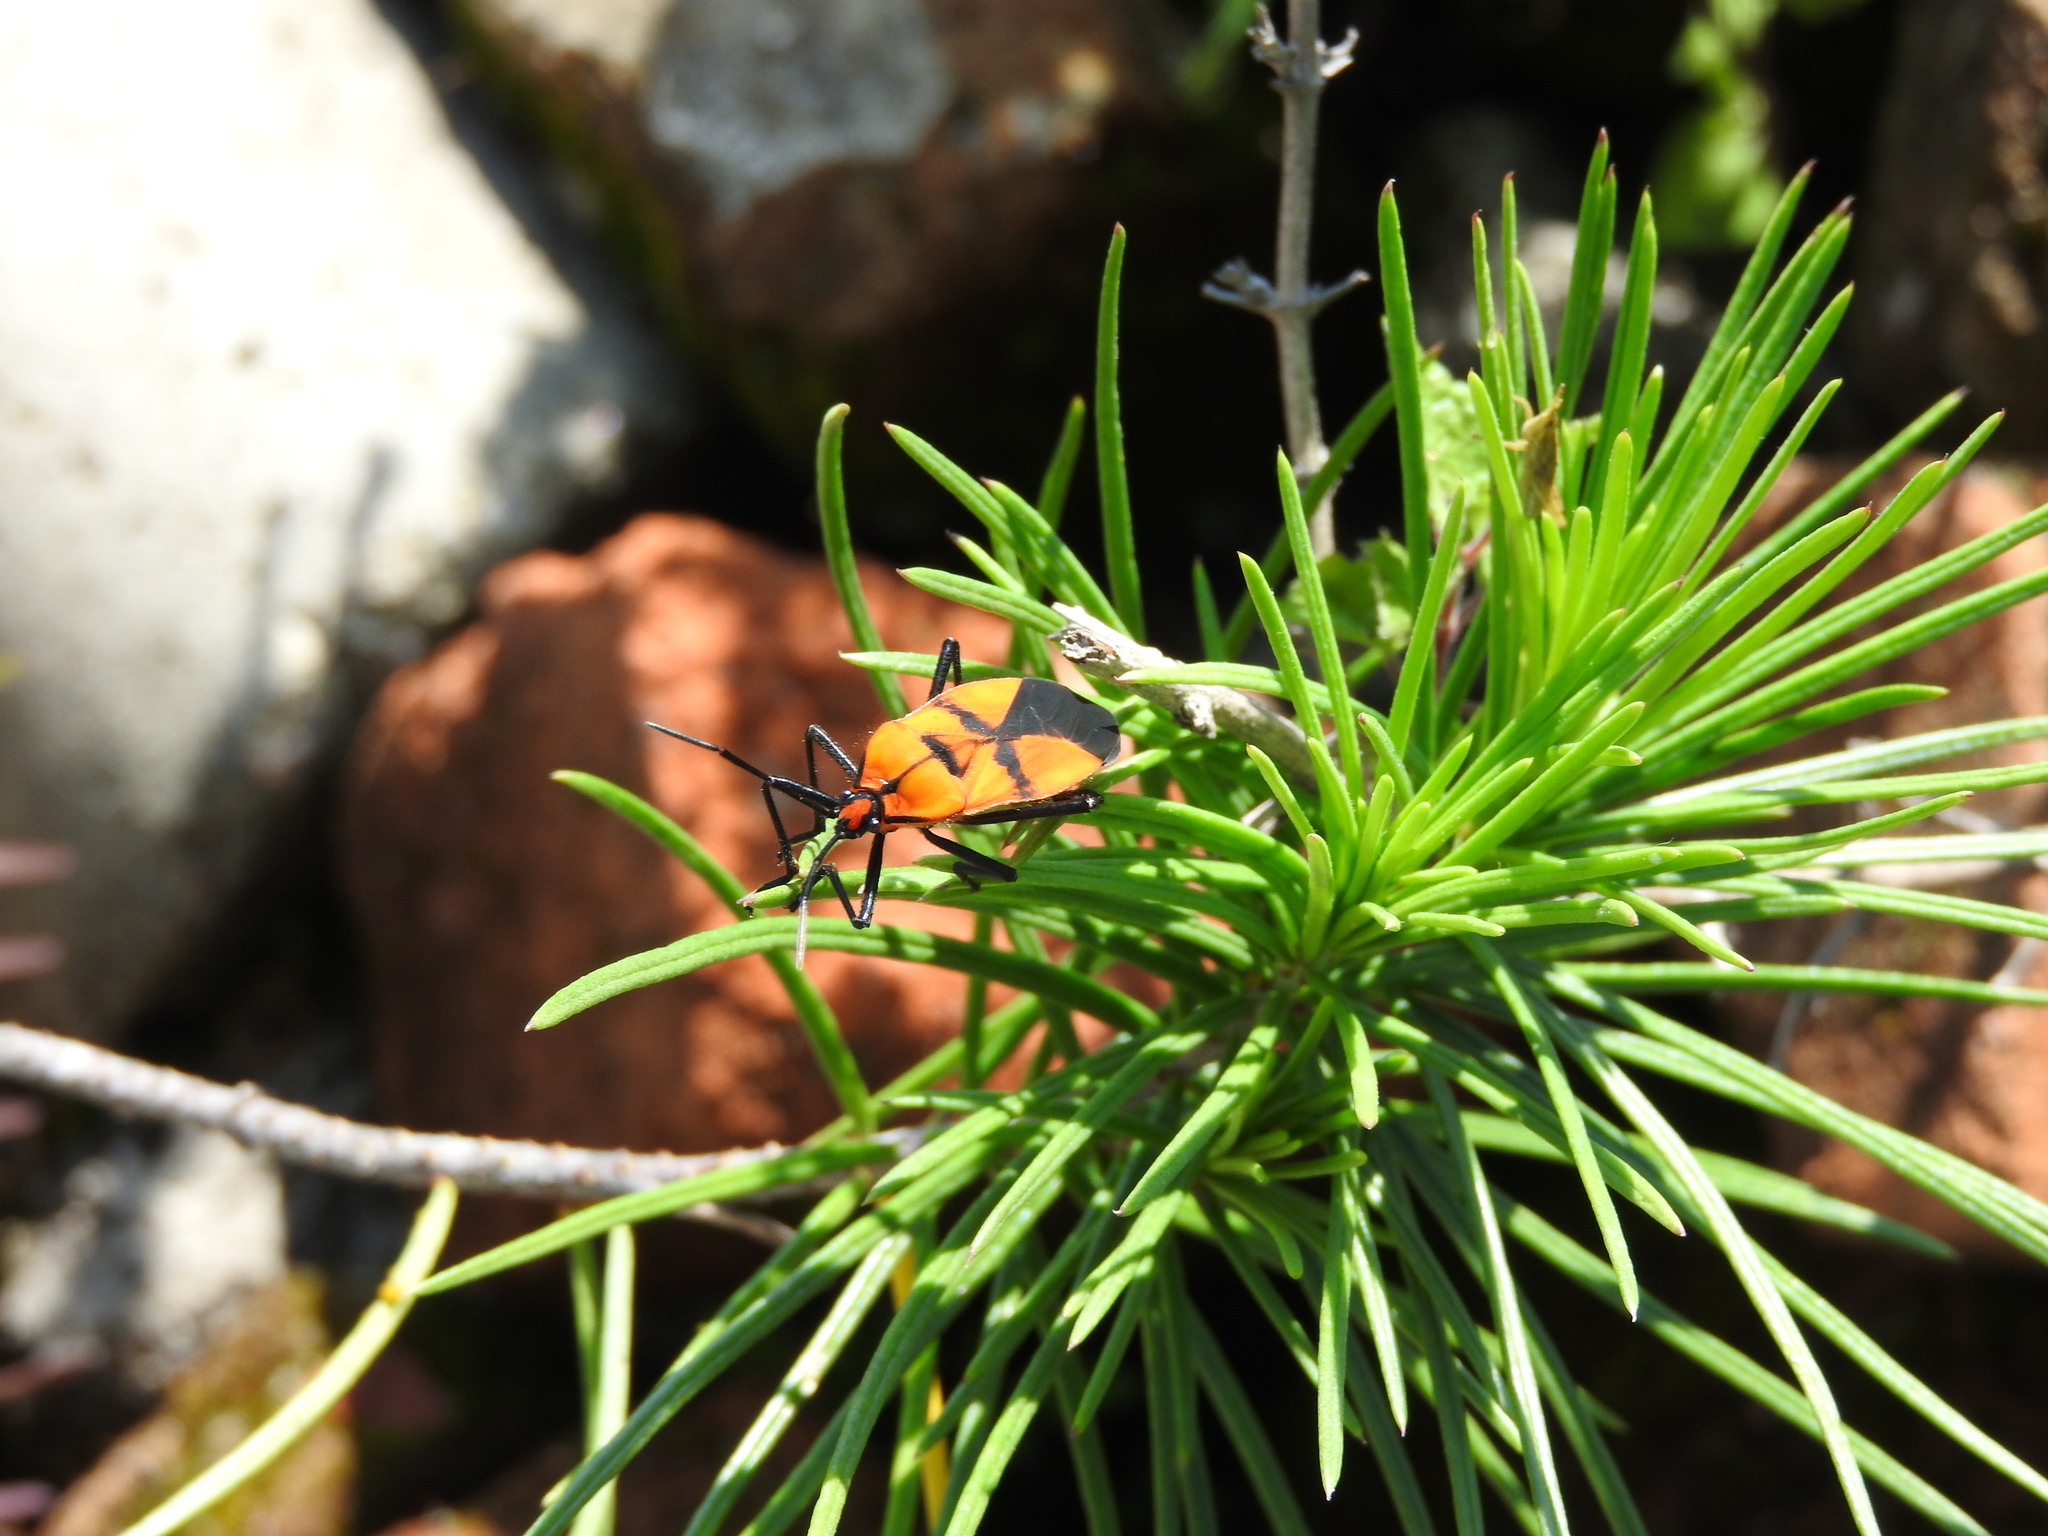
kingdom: Animalia
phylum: Arthropoda
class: Insecta
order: Hemiptera
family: Lygaeidae
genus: Oncopeltus
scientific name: Oncopeltus varicolor
